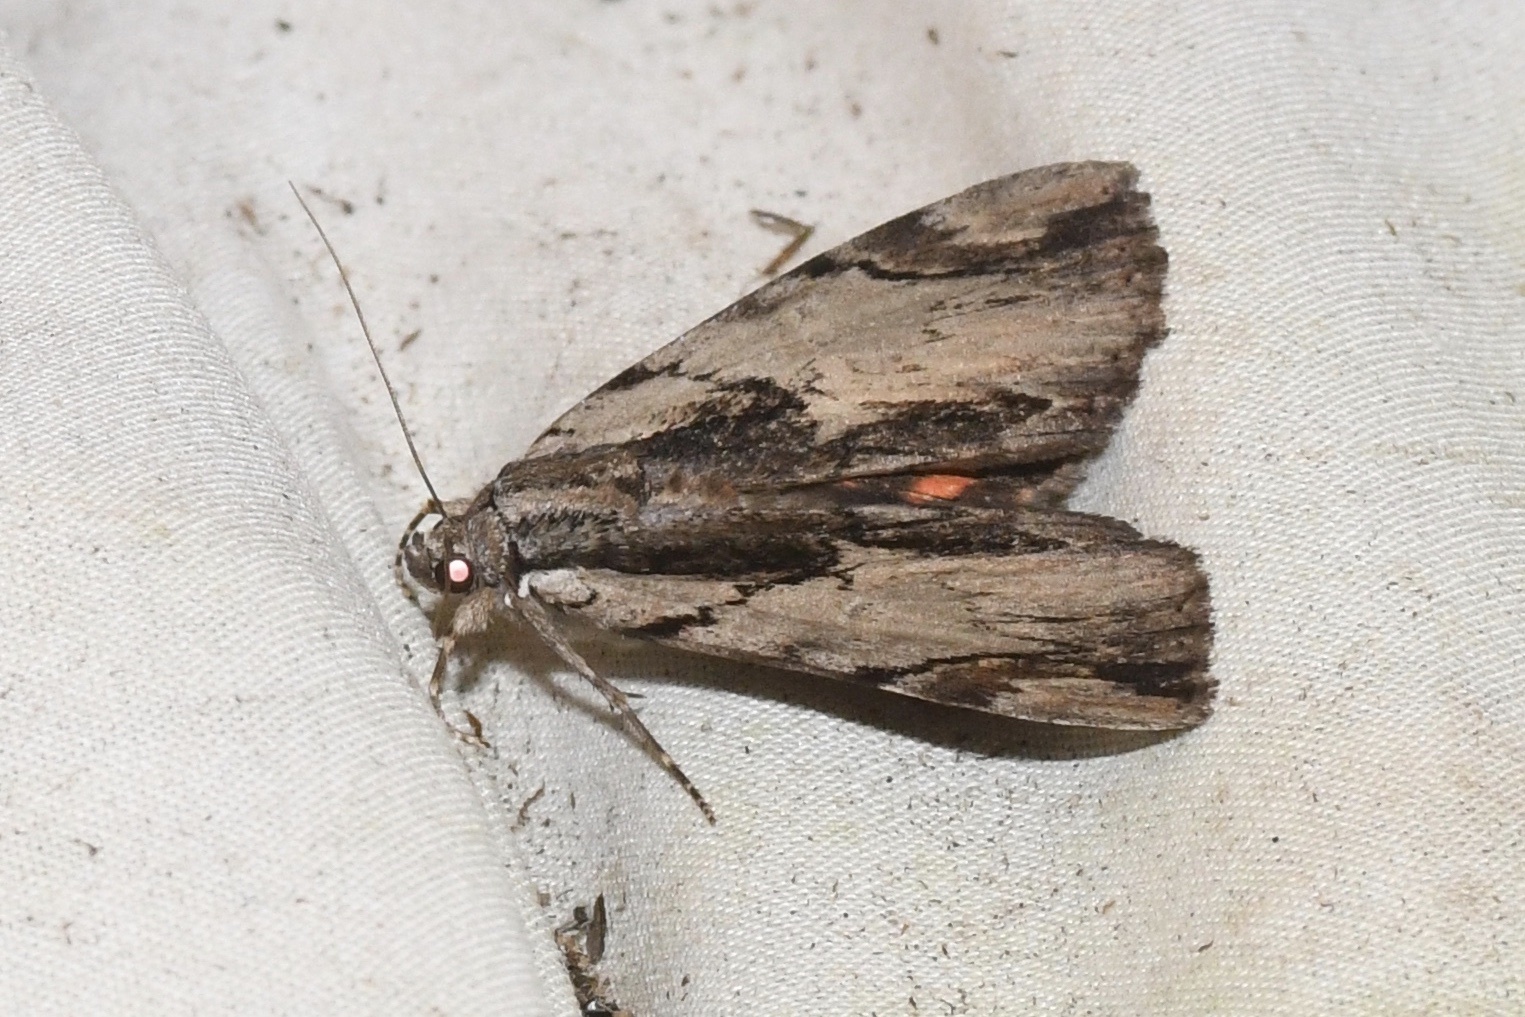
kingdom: Animalia
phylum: Arthropoda
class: Insecta
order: Lepidoptera
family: Erebidae
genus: Catocala
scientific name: Catocala ultronia
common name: Ultronia underwing
